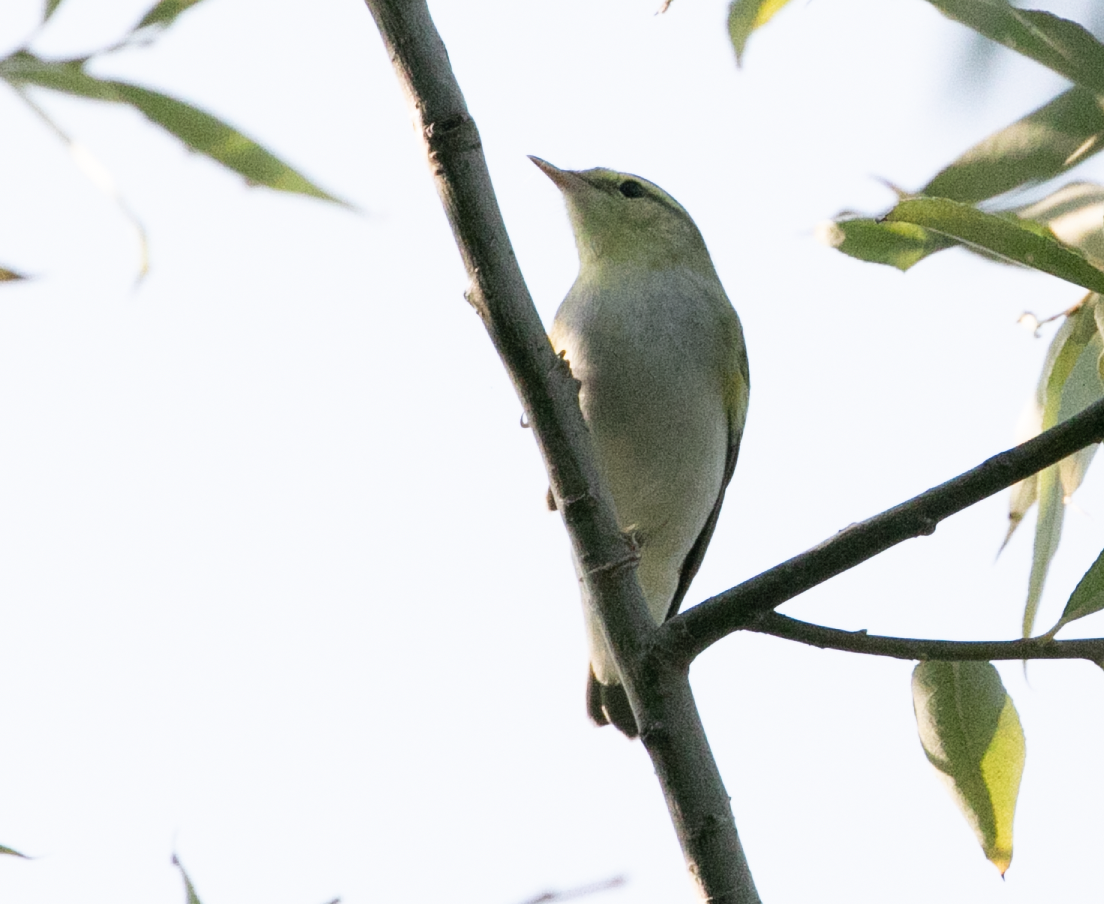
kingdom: Animalia
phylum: Chordata
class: Aves
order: Passeriformes
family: Phylloscopidae
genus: Phylloscopus
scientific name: Phylloscopus sibillatrix
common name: Wood warbler
